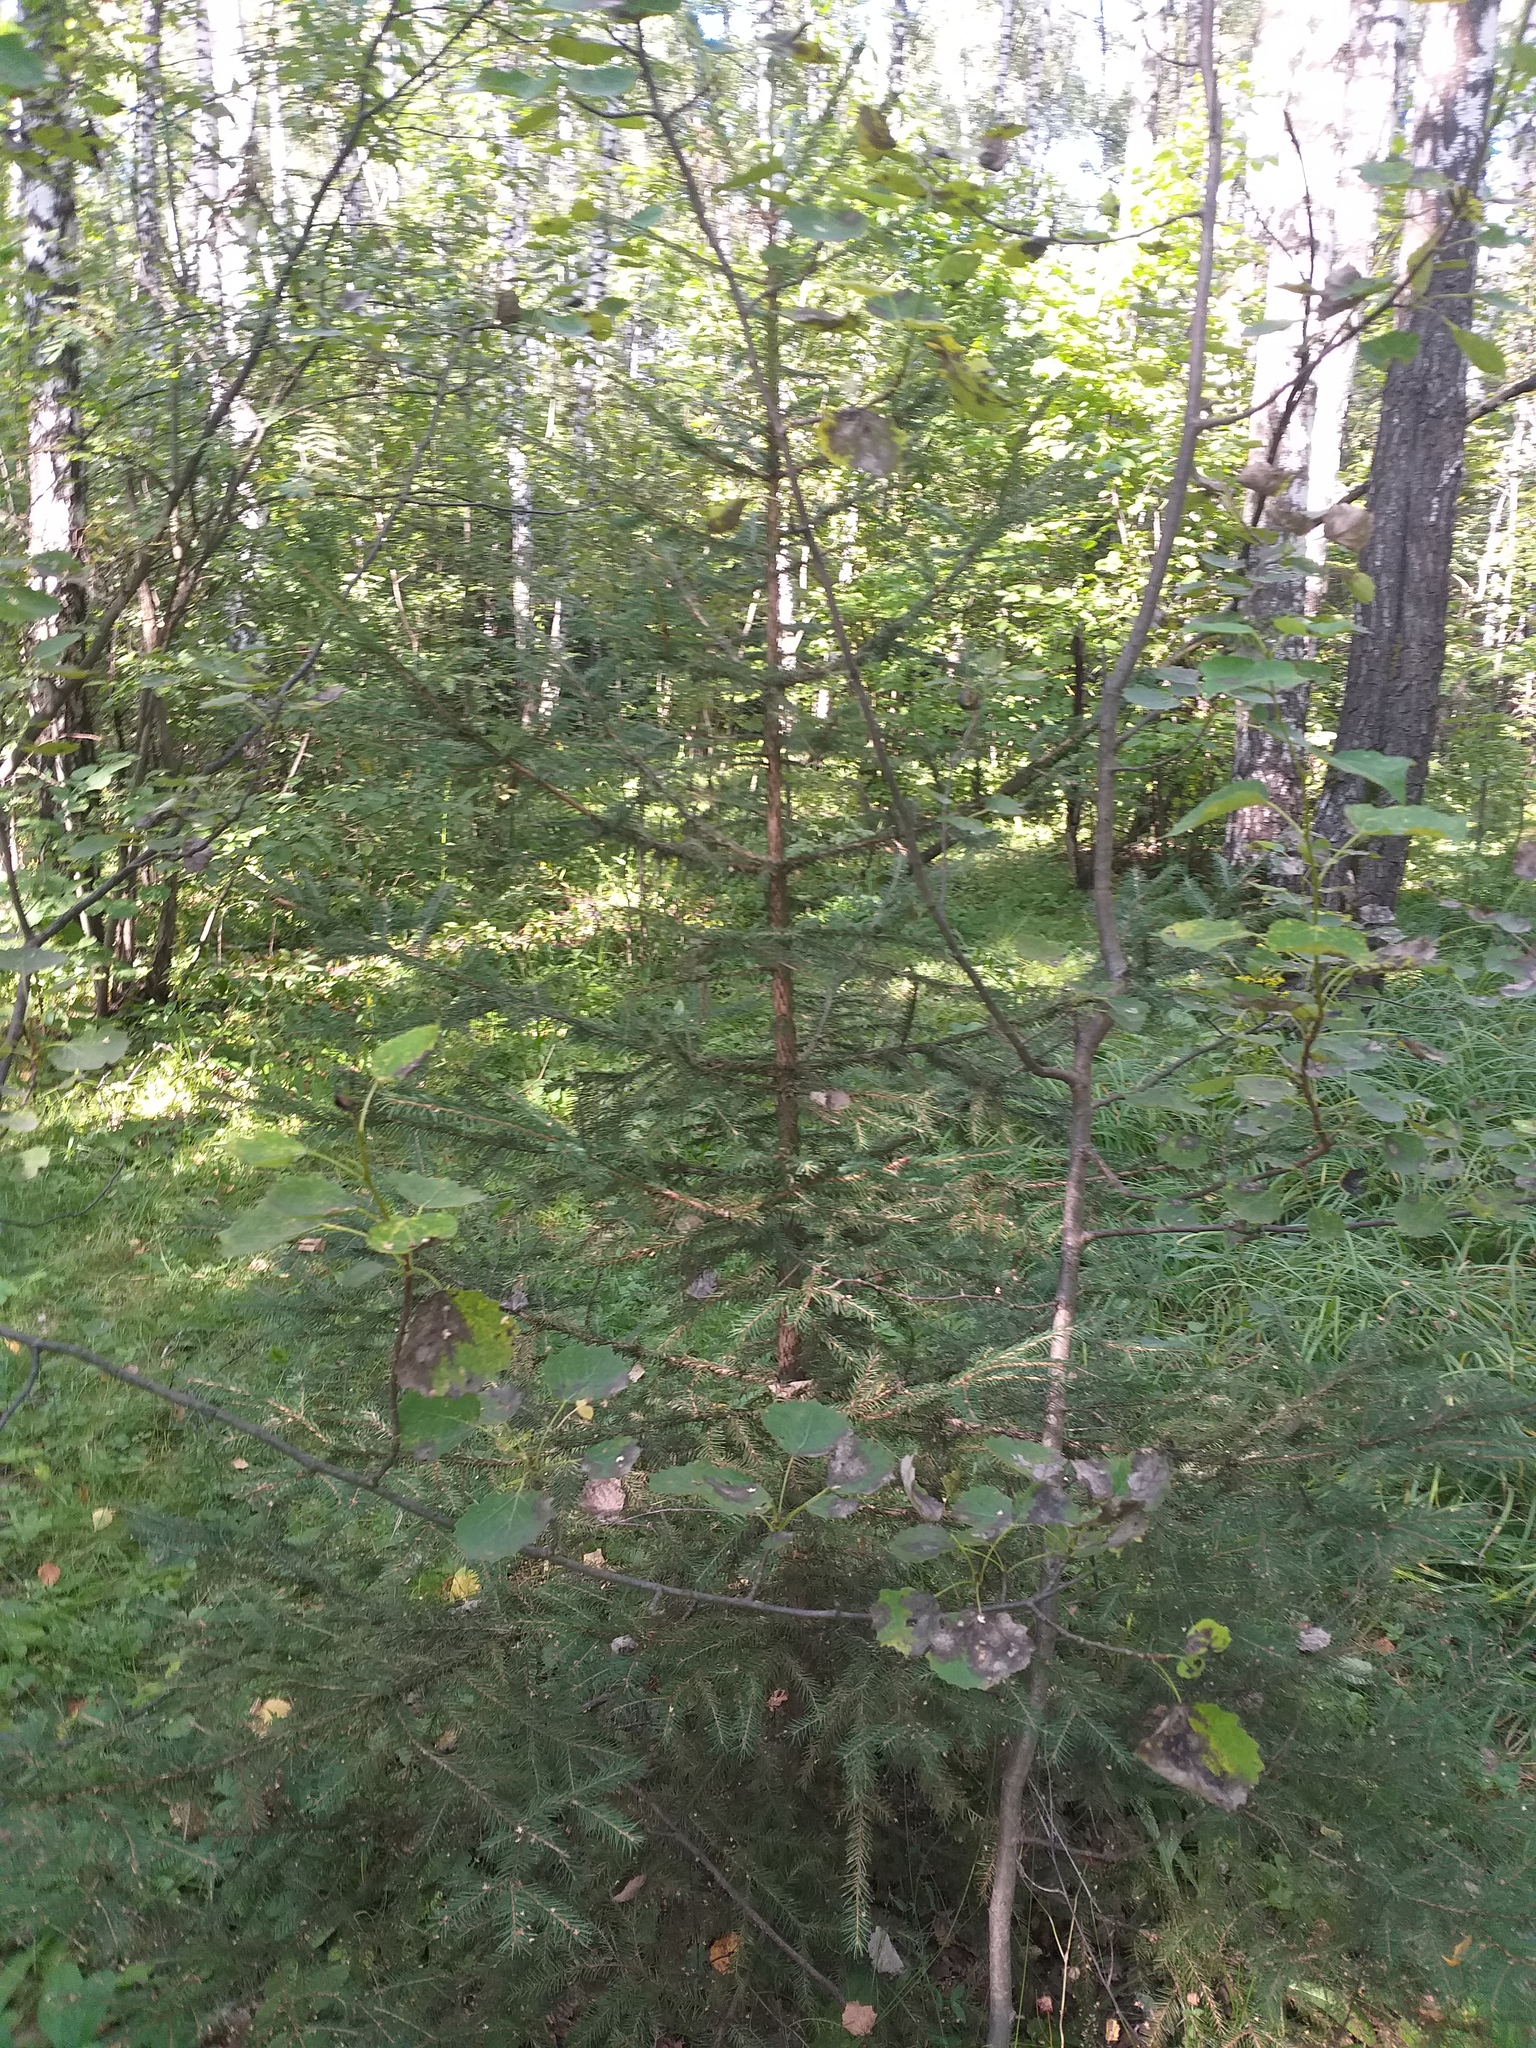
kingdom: Plantae
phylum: Tracheophyta
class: Pinopsida
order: Pinales
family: Pinaceae
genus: Picea
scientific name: Picea abies
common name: Norway spruce
